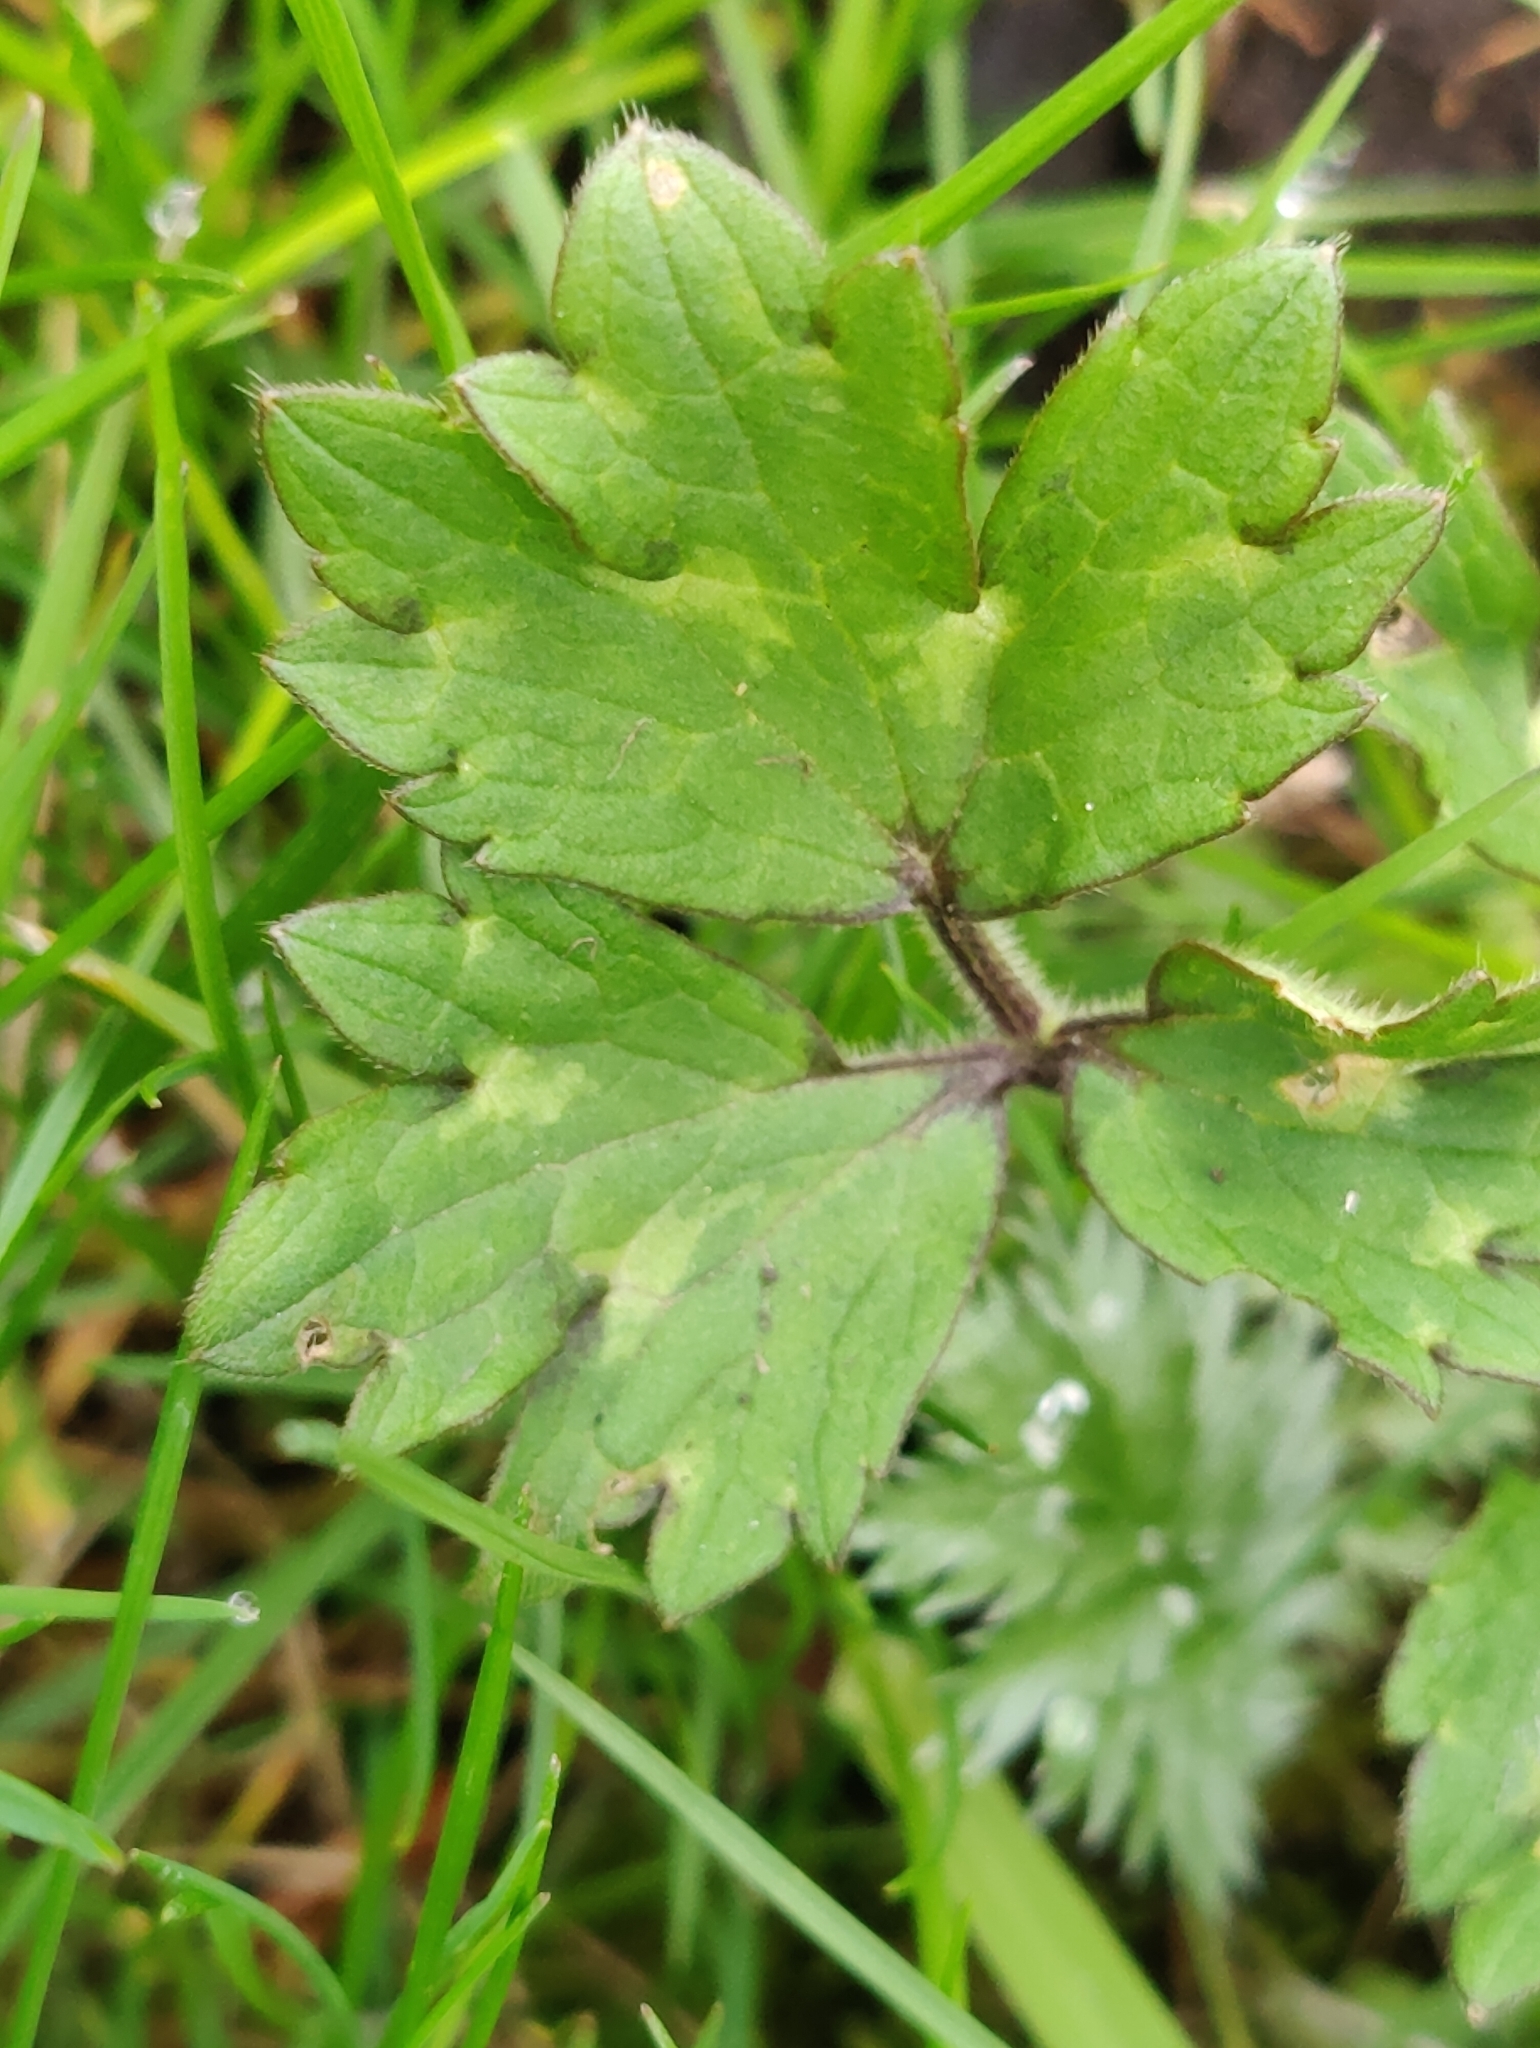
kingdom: Plantae
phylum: Tracheophyta
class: Magnoliopsida
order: Ranunculales
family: Ranunculaceae
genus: Ranunculus
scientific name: Ranunculus repens
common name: Creeping buttercup
